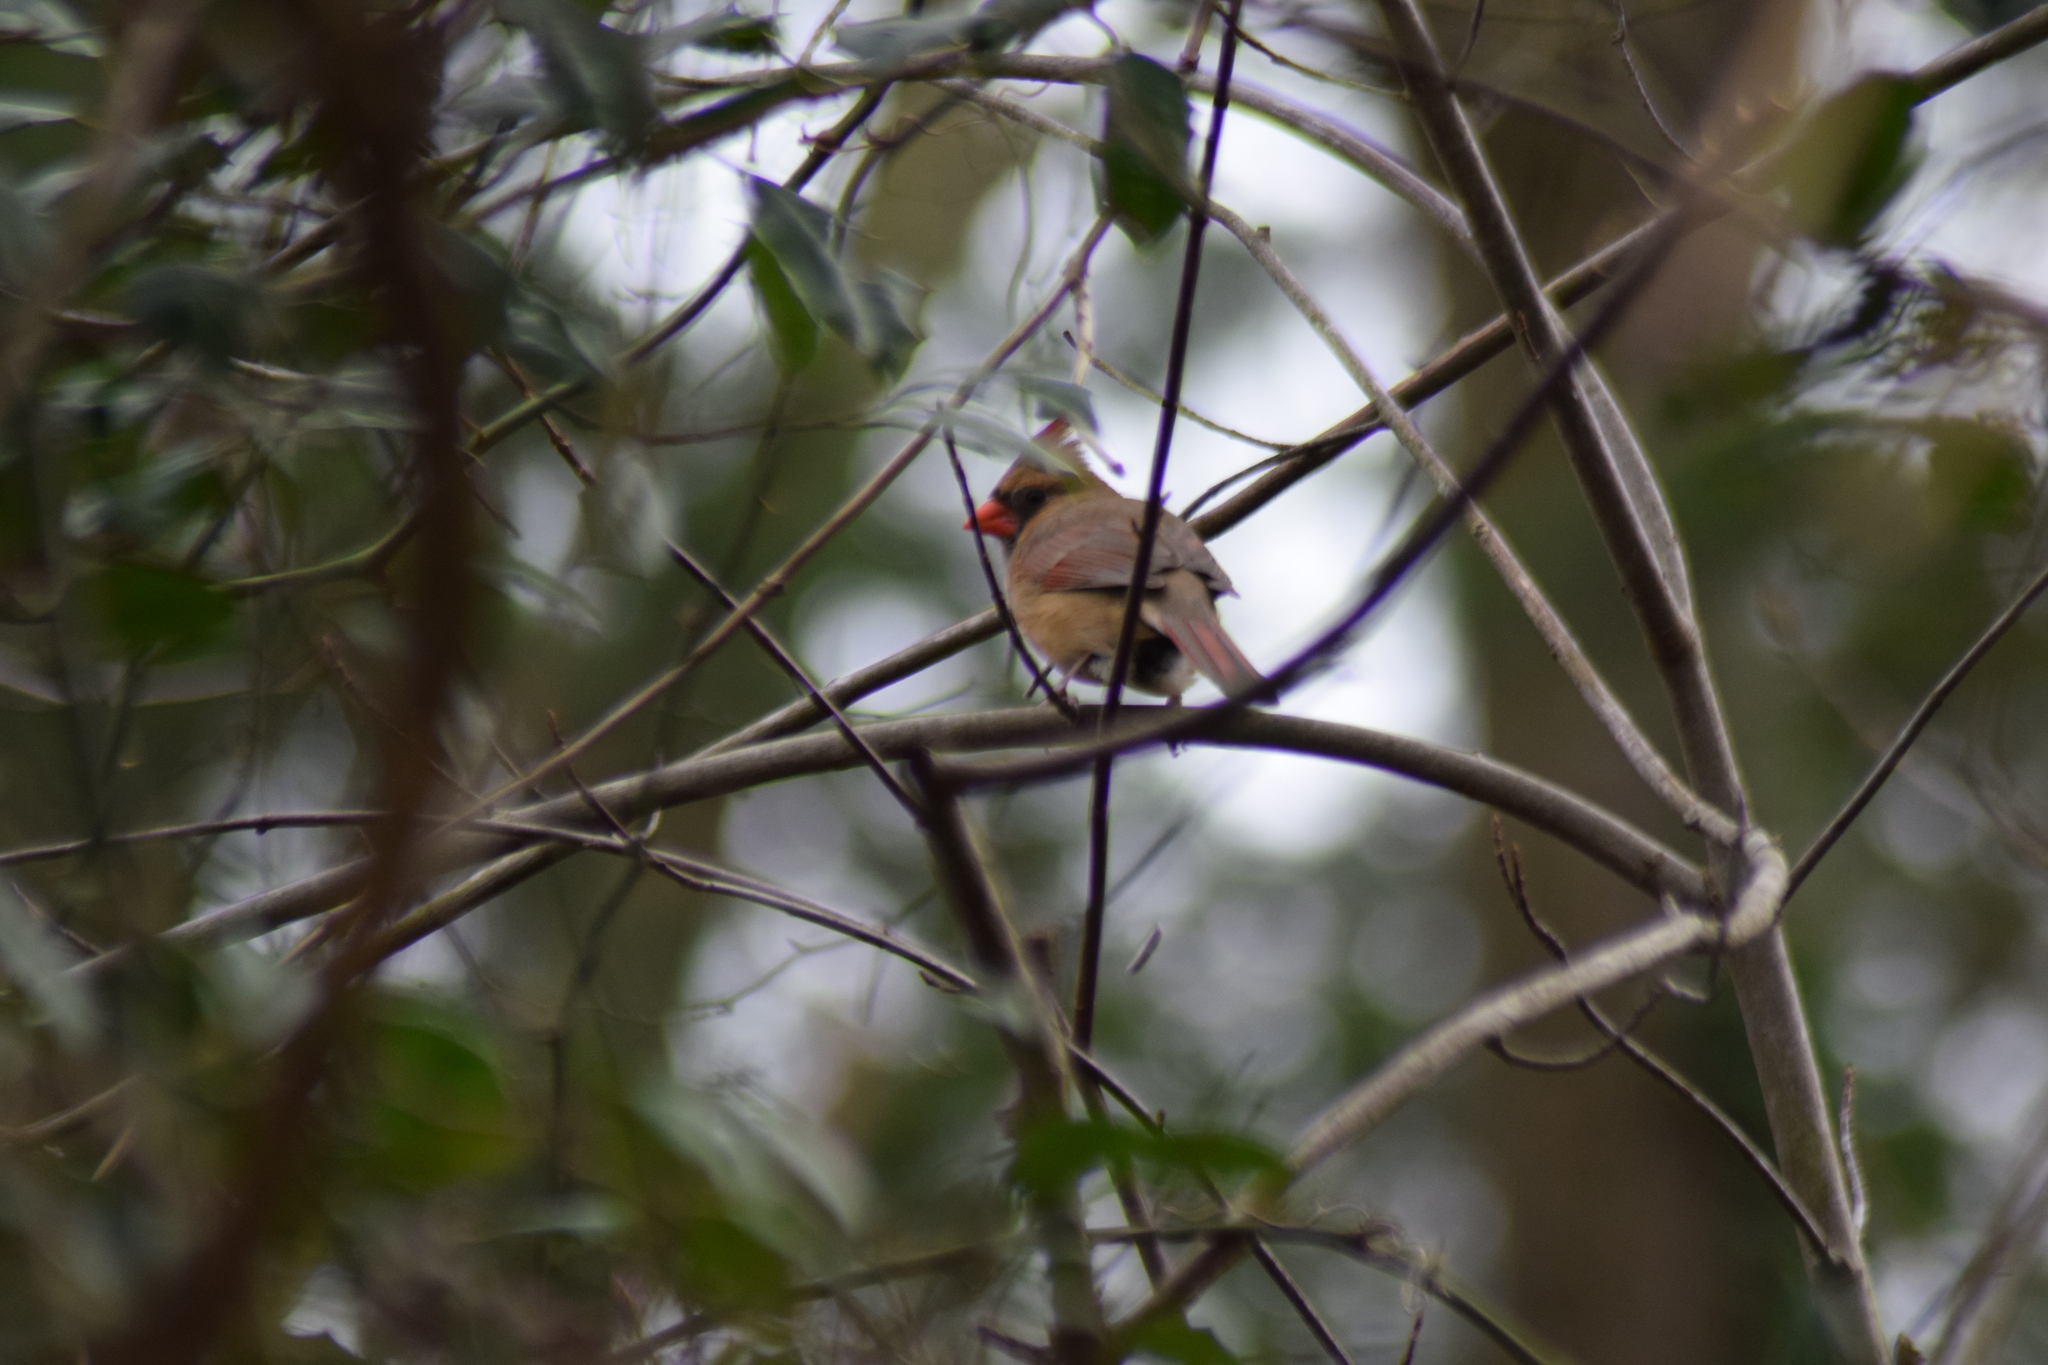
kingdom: Animalia
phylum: Chordata
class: Aves
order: Passeriformes
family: Cardinalidae
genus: Cardinalis
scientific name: Cardinalis cardinalis
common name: Northern cardinal
